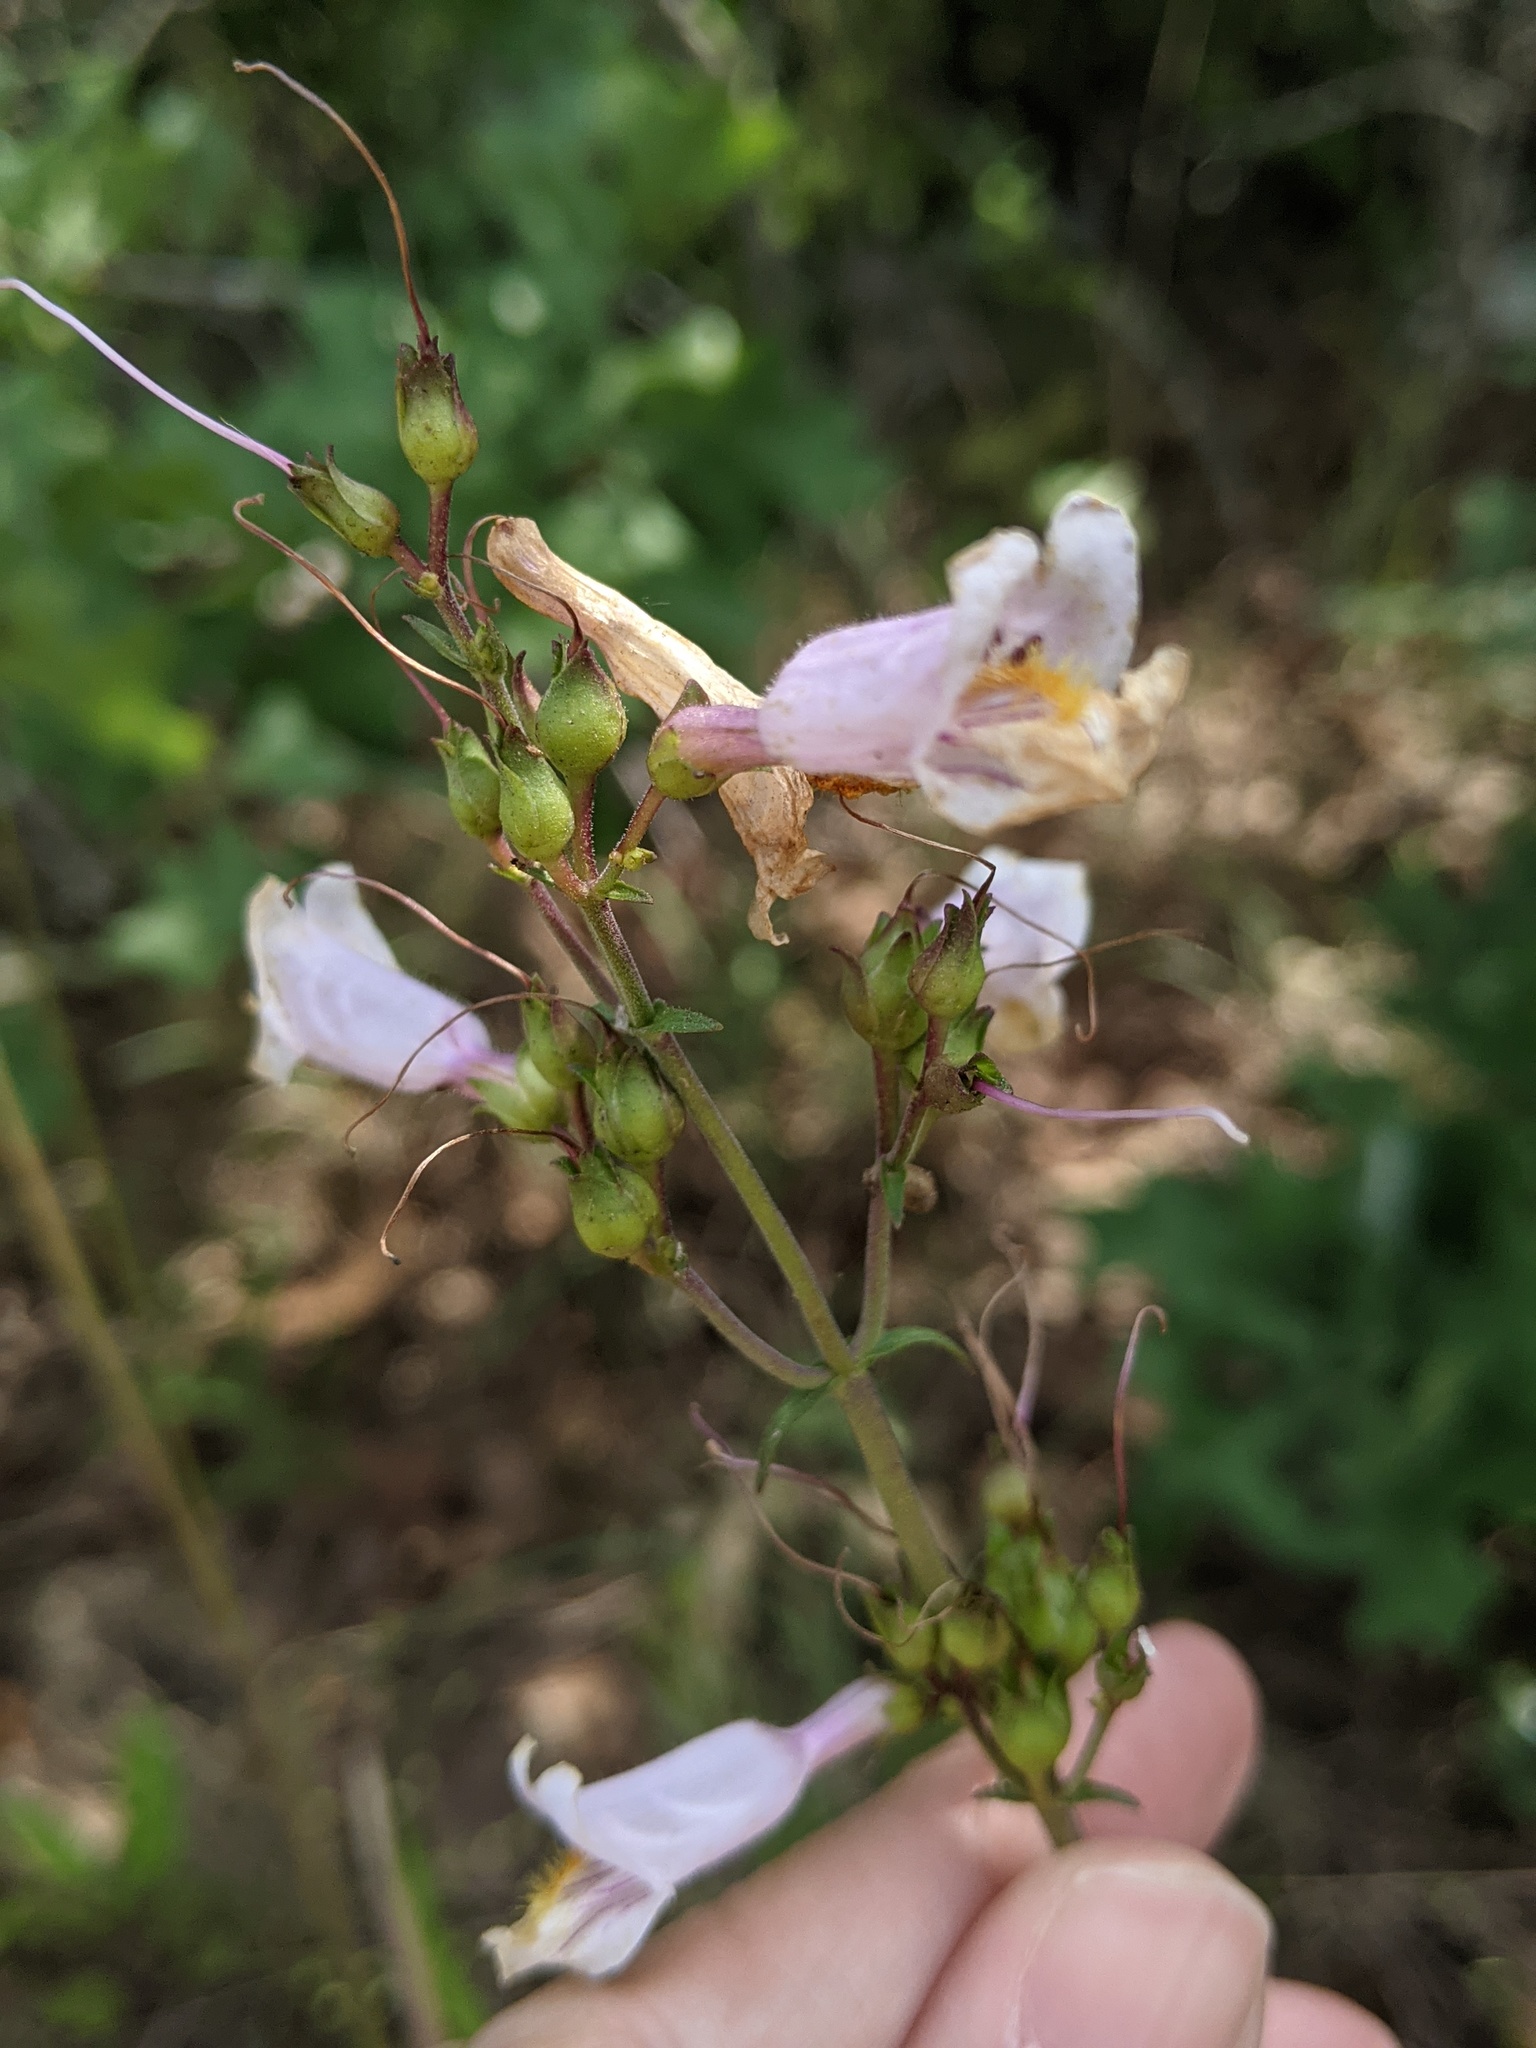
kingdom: Plantae
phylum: Tracheophyta
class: Magnoliopsida
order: Lamiales
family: Plantaginaceae
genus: Penstemon
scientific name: Penstemon laxiflorus
